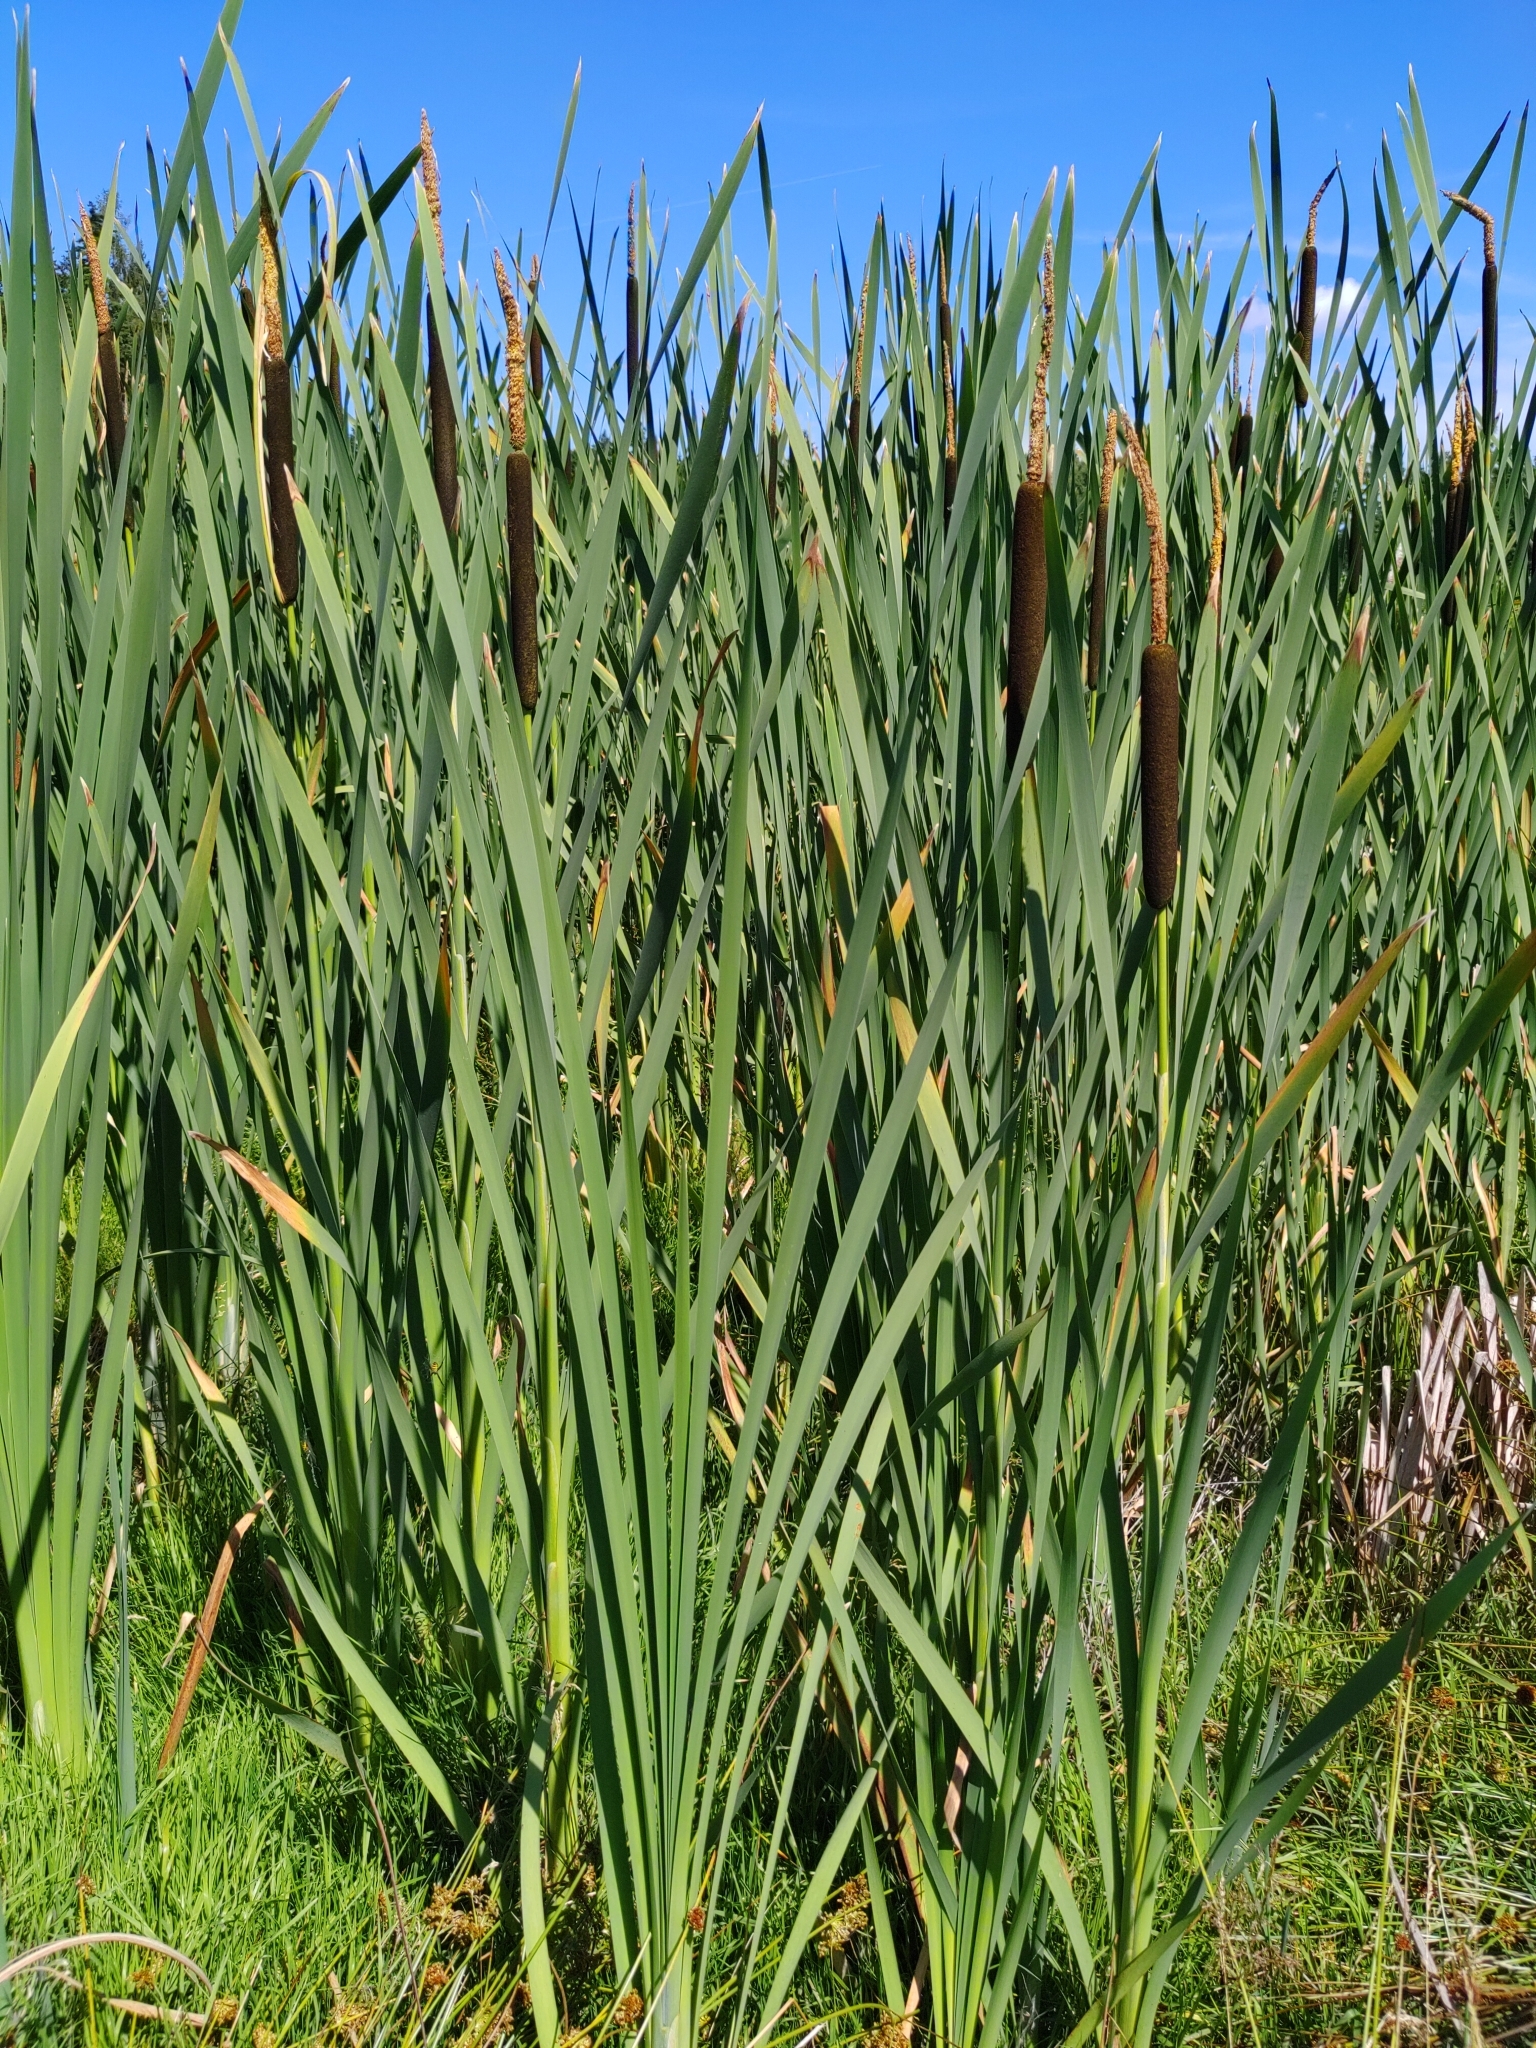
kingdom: Plantae
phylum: Tracheophyta
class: Liliopsida
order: Poales
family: Typhaceae
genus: Typha
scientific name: Typha latifolia
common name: Broadleaf cattail
